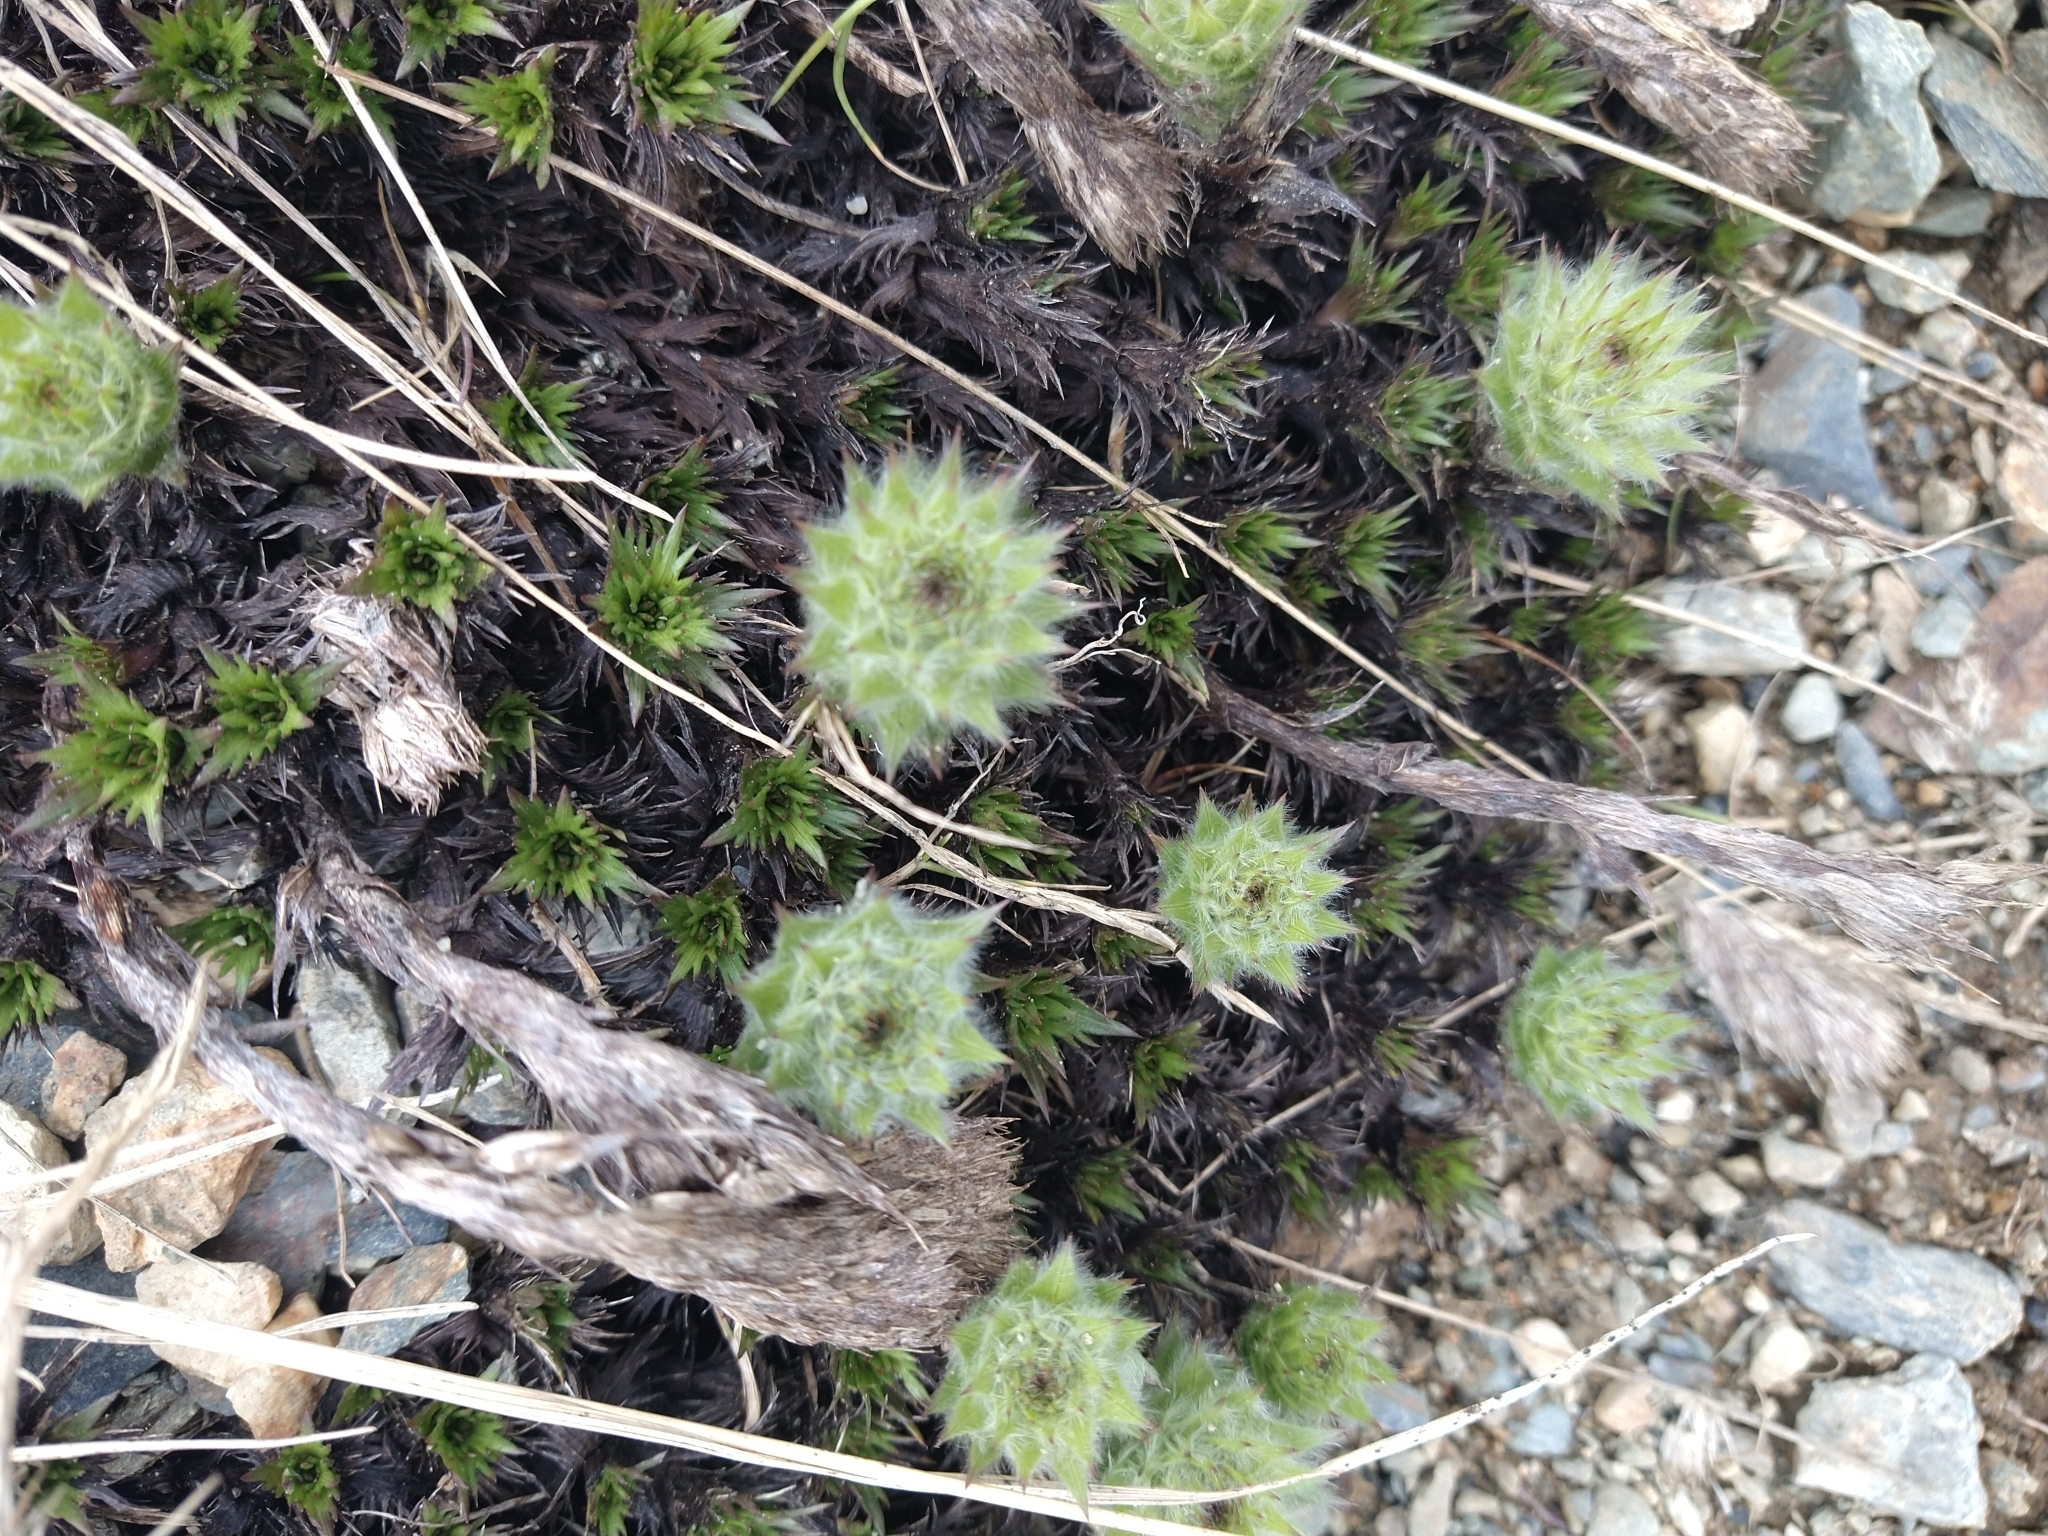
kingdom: Plantae
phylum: Tracheophyta
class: Magnoliopsida
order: Asterales
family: Asteraceae
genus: Nassauvia
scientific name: Nassauvia magellanica
